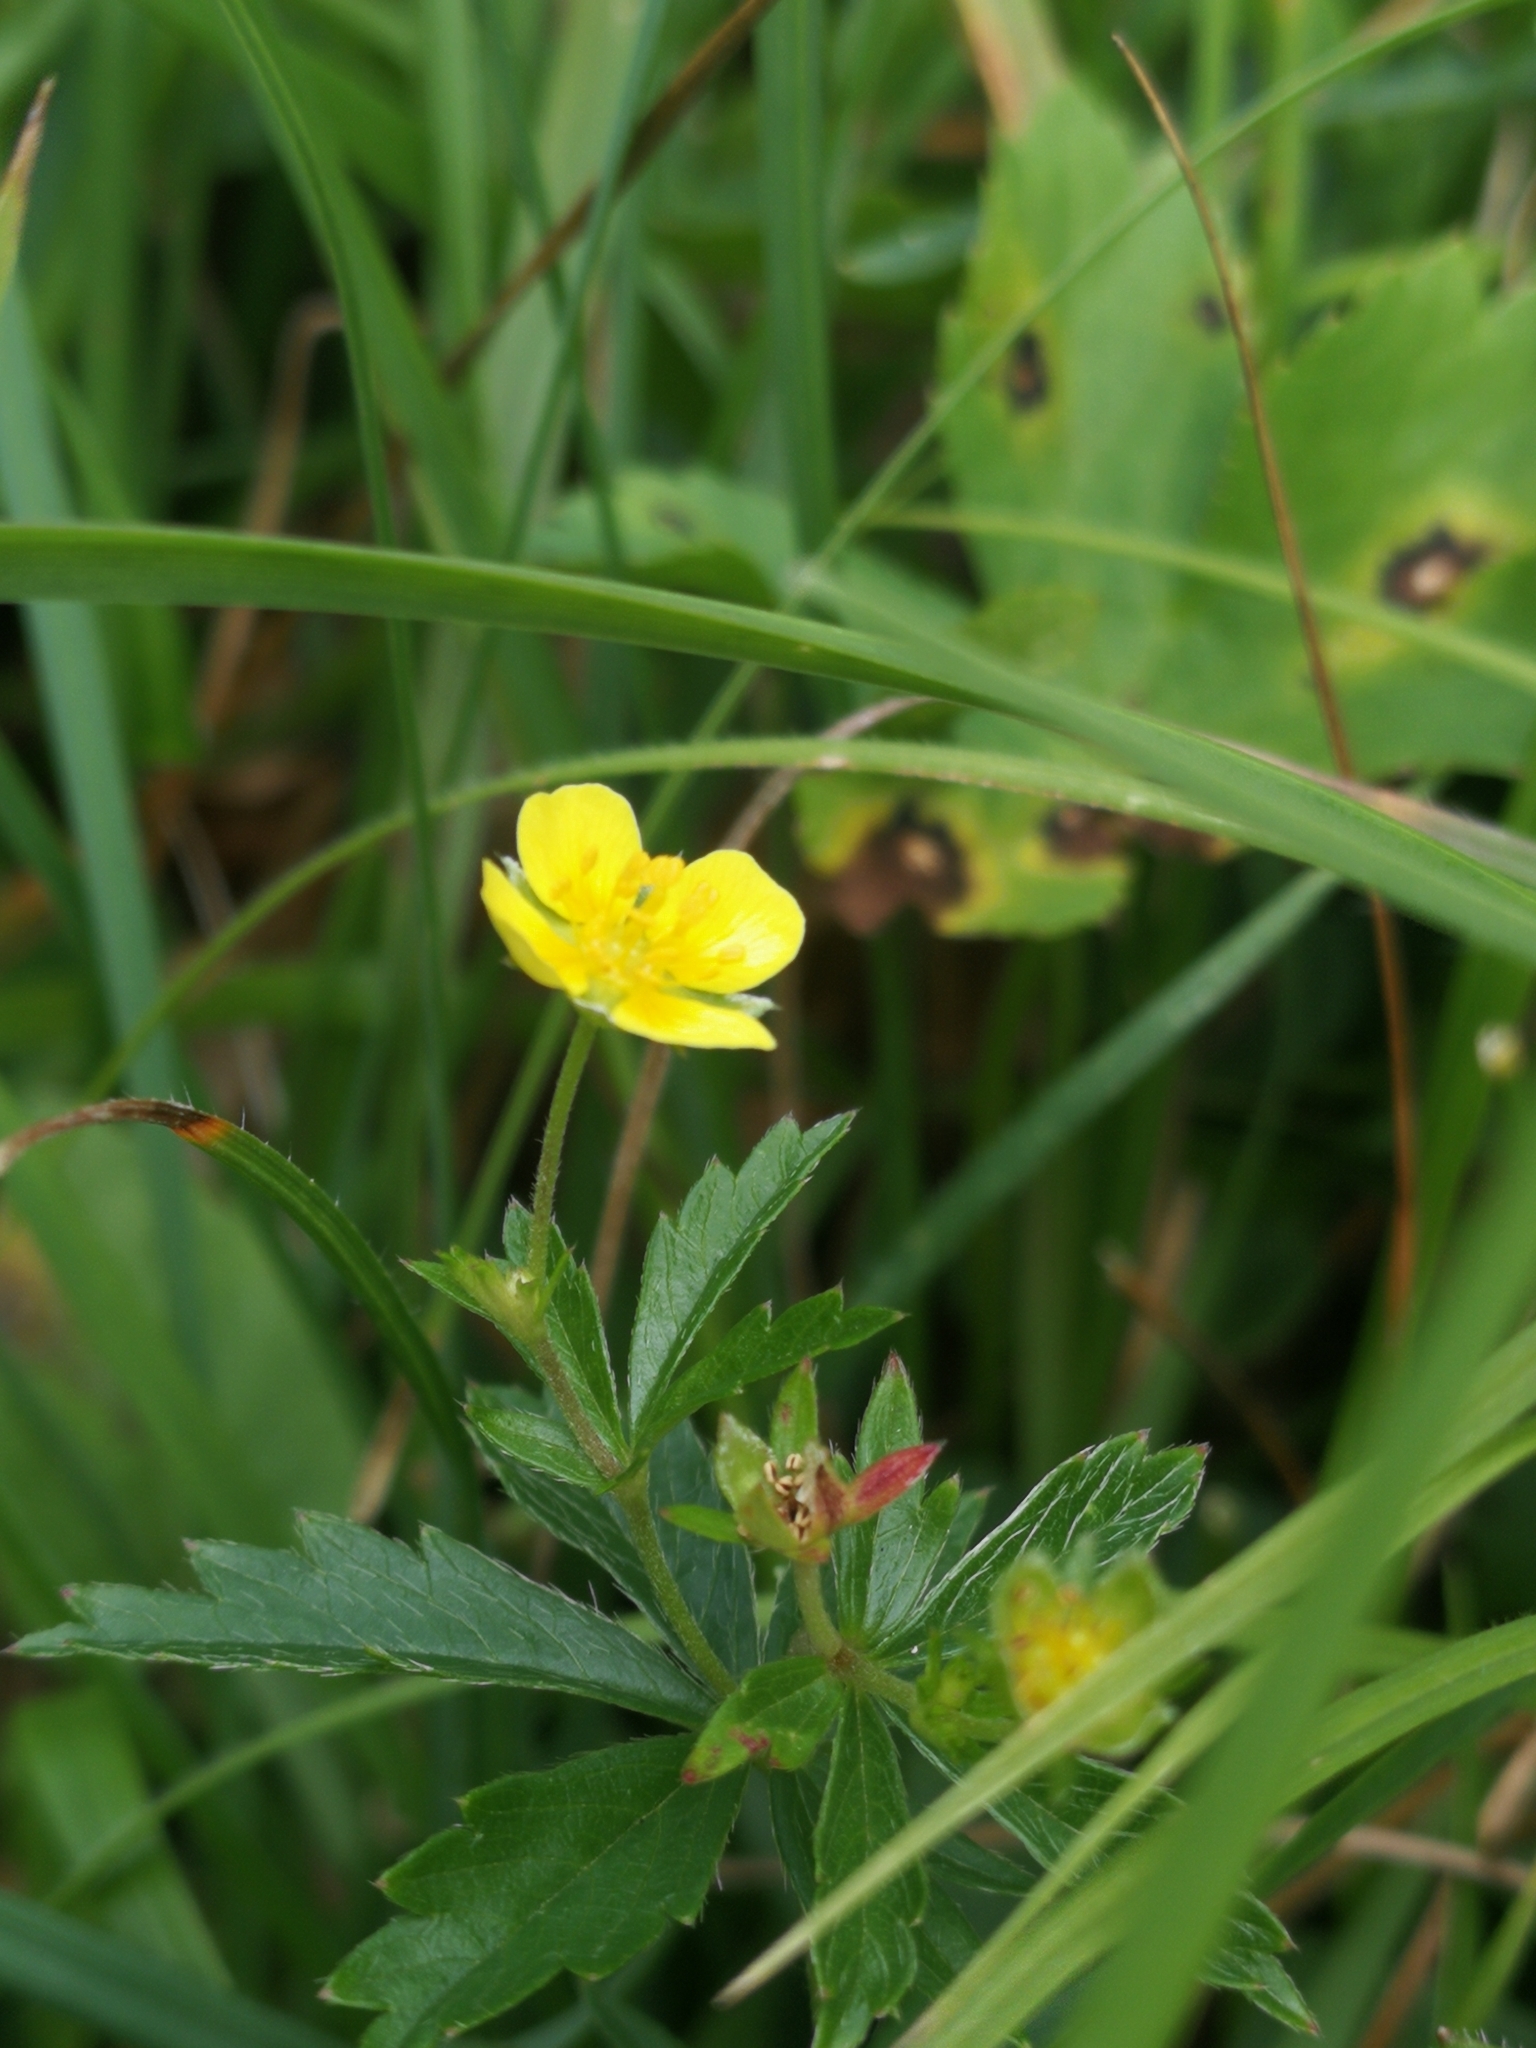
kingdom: Plantae
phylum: Tracheophyta
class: Magnoliopsida
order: Rosales
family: Rosaceae
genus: Potentilla
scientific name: Potentilla erecta
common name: Tormentil
